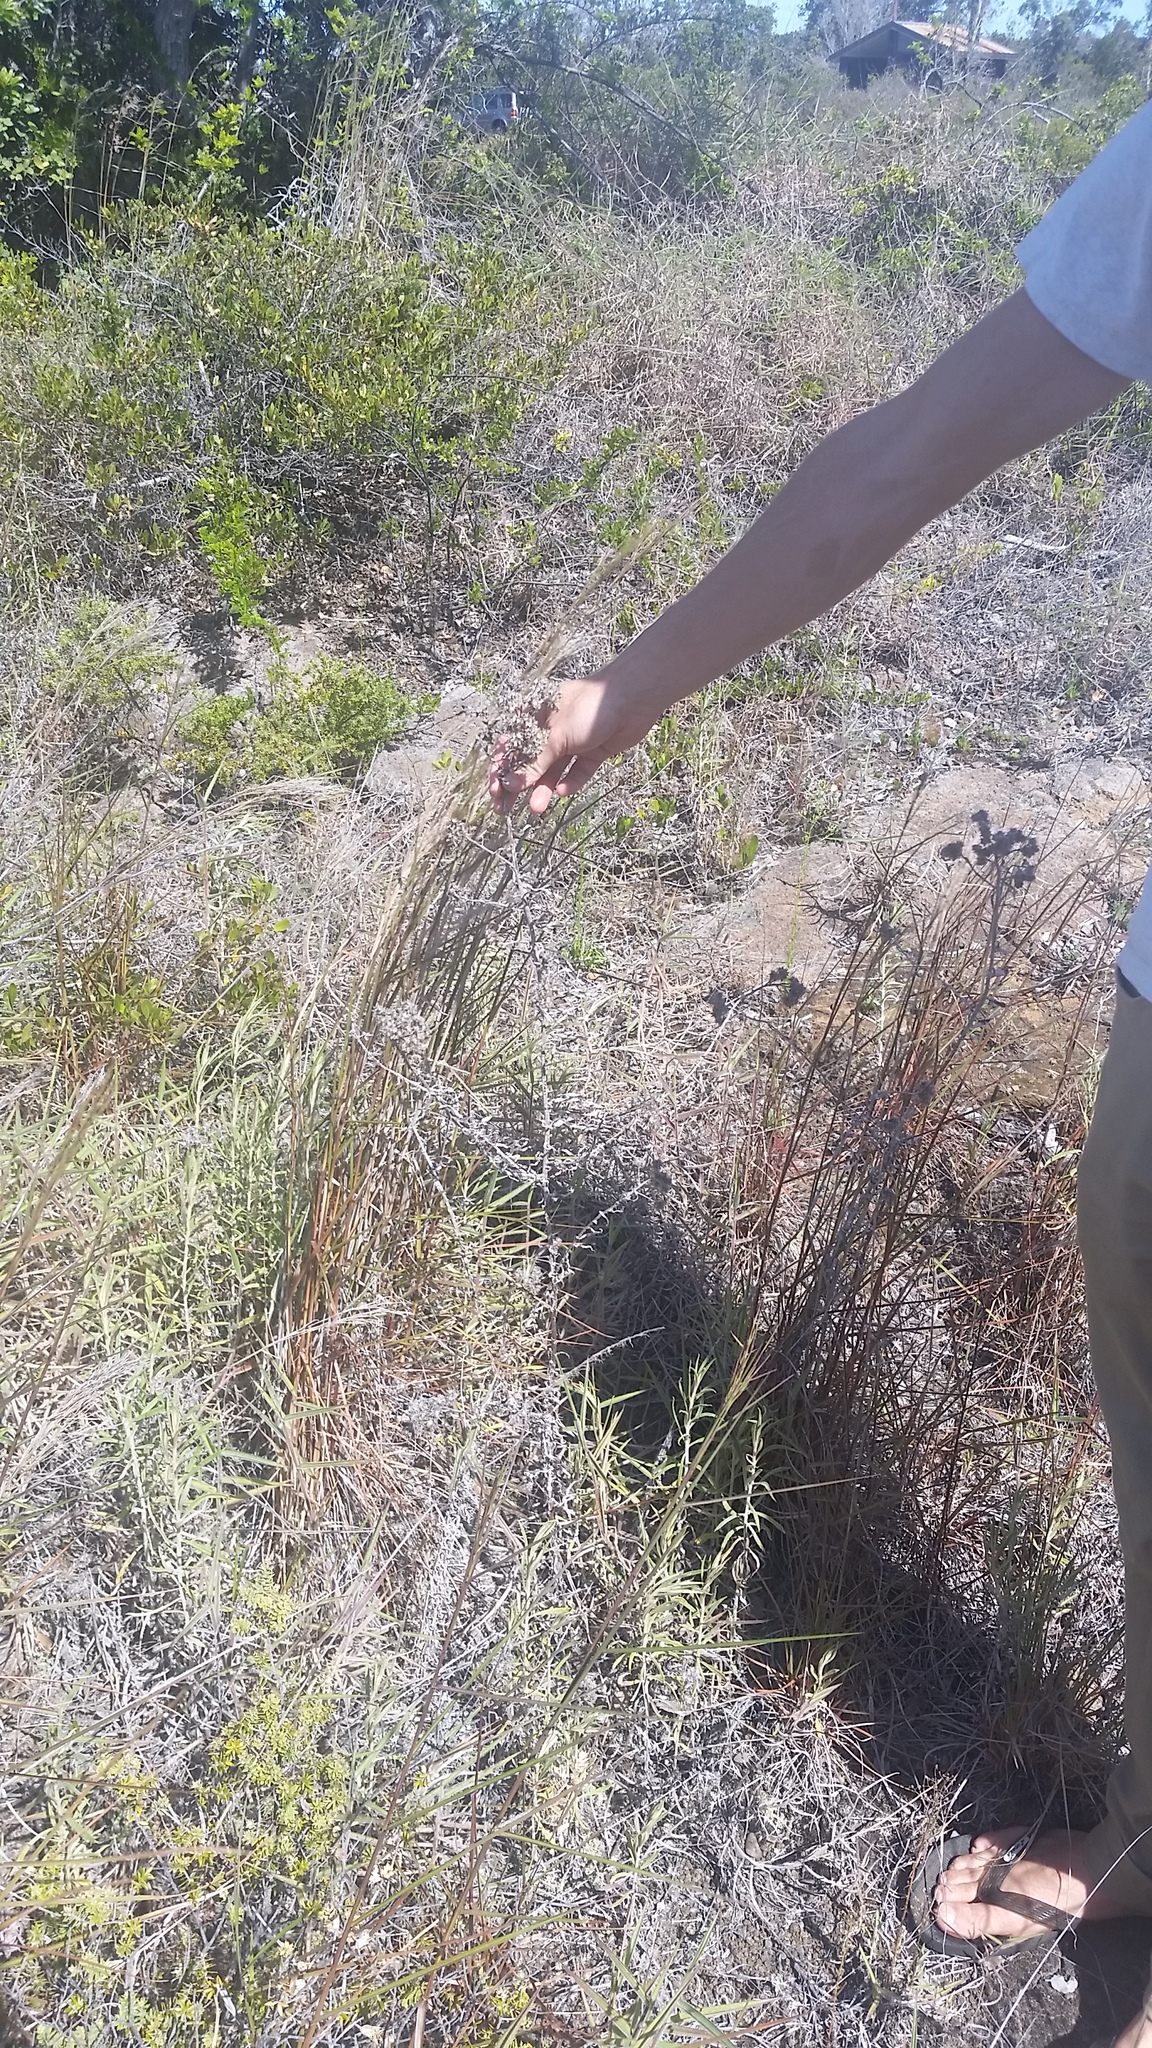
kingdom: Plantae
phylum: Tracheophyta
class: Magnoliopsida
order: Asterales
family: Asteraceae
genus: Pseudognaphalium
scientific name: Pseudognaphalium attenuatum
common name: Tapered cudweed
